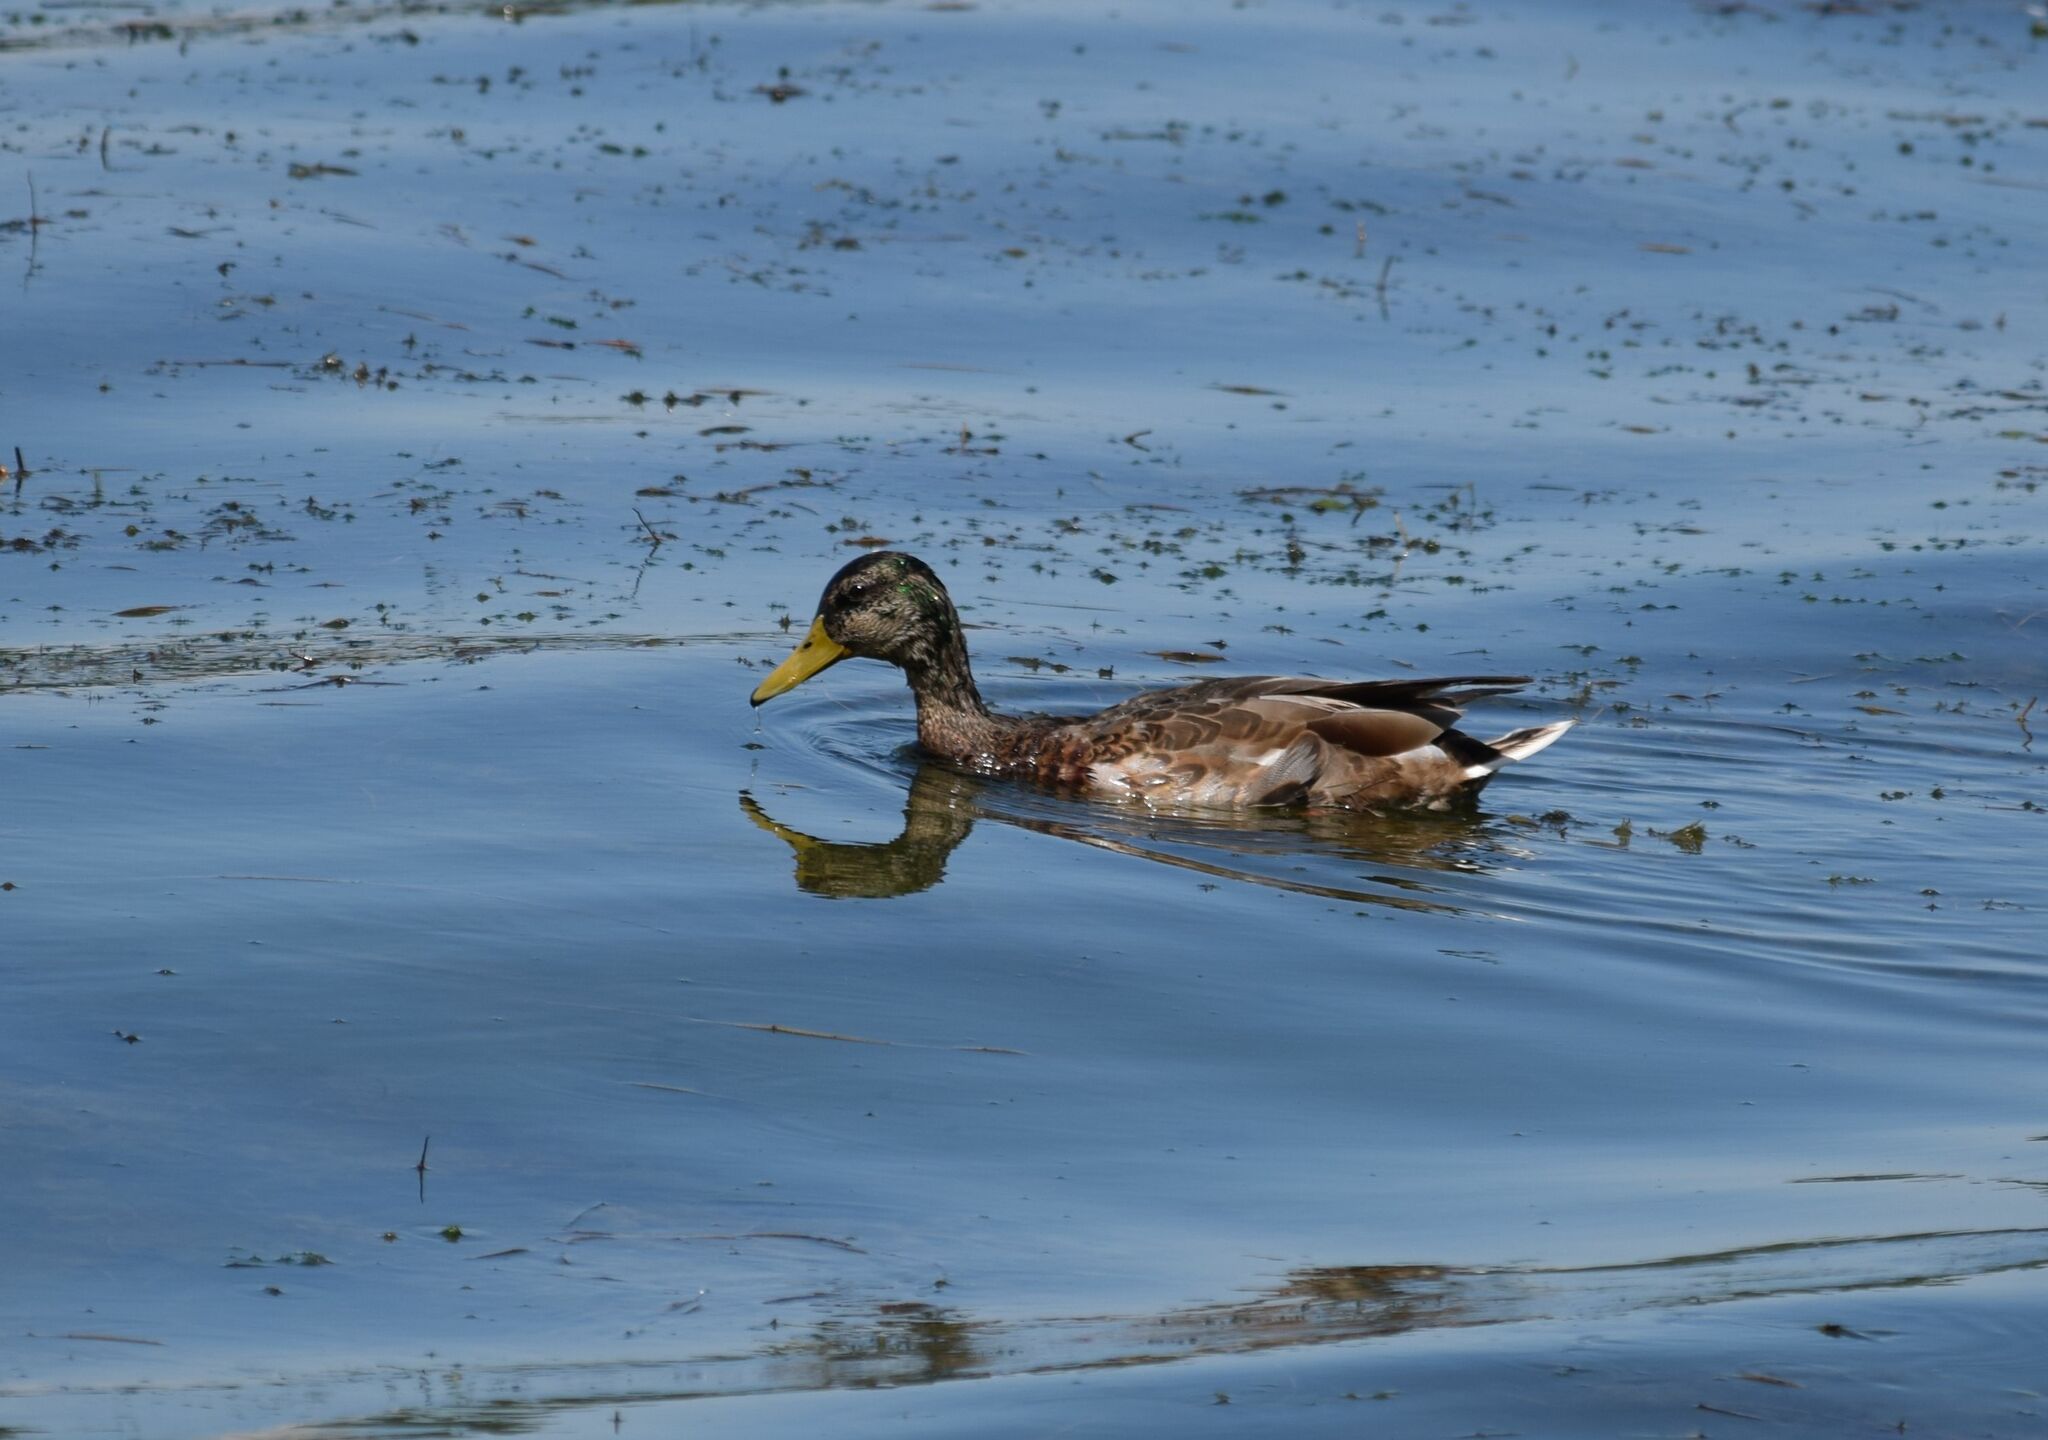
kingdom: Animalia
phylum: Chordata
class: Aves
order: Anseriformes
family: Anatidae
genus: Anas
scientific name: Anas platyrhynchos
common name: Mallard
